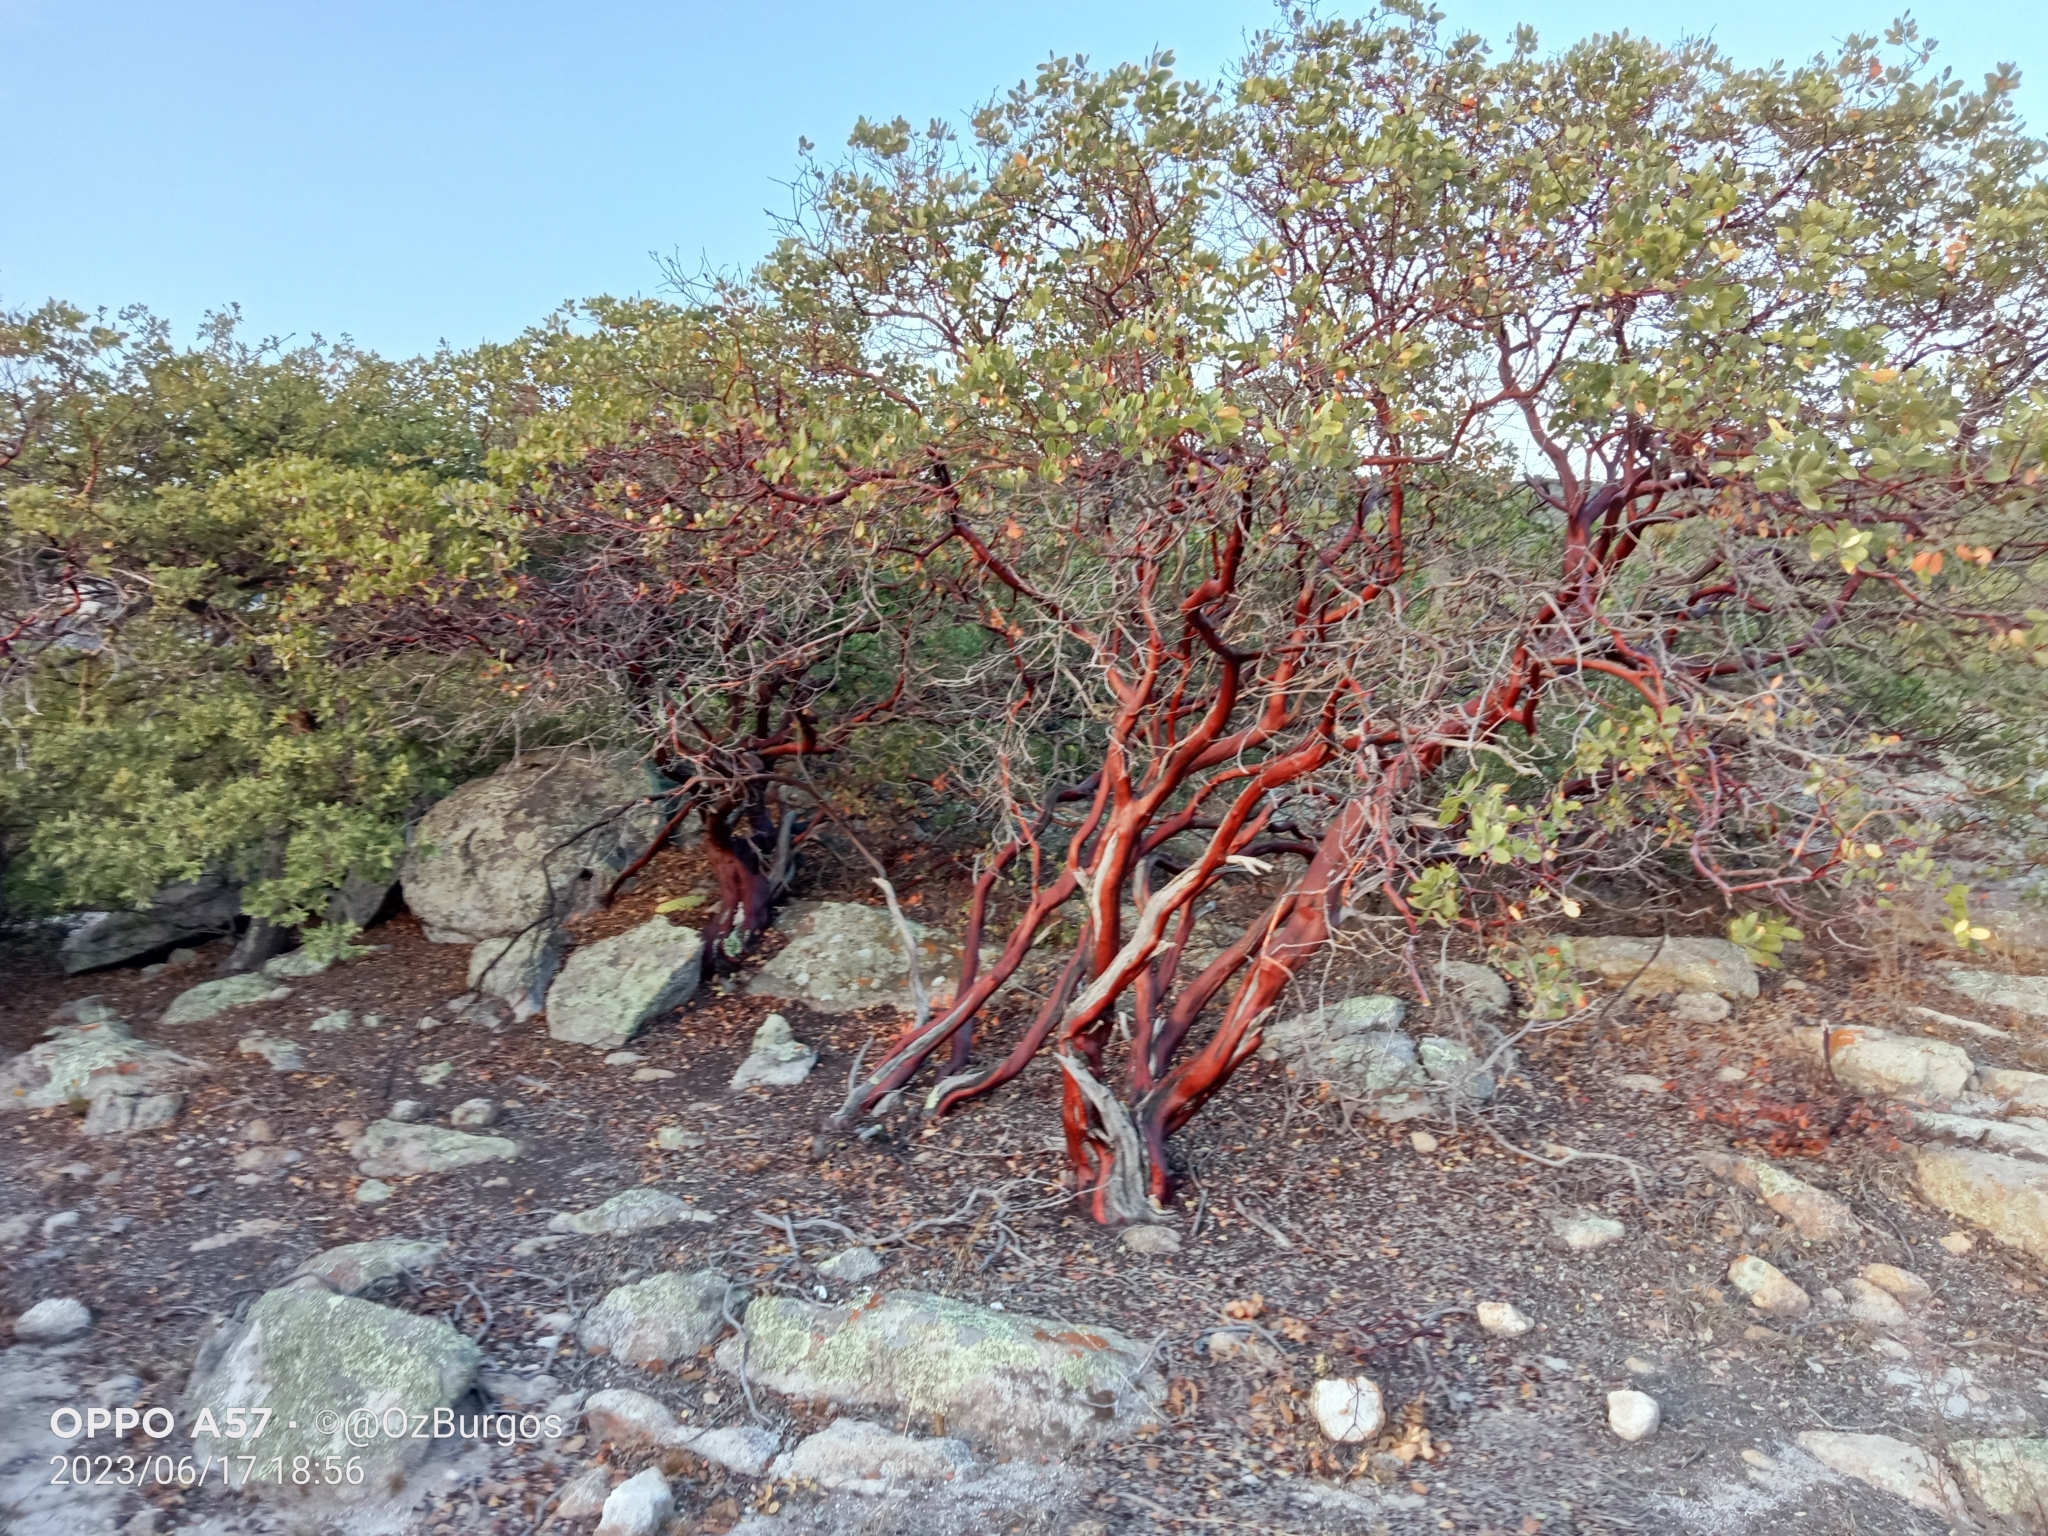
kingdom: Plantae
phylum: Tracheophyta
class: Magnoliopsida
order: Ericales
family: Ericaceae
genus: Arctostaphylos
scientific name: Arctostaphylos pungens
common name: Mexican manzanita
